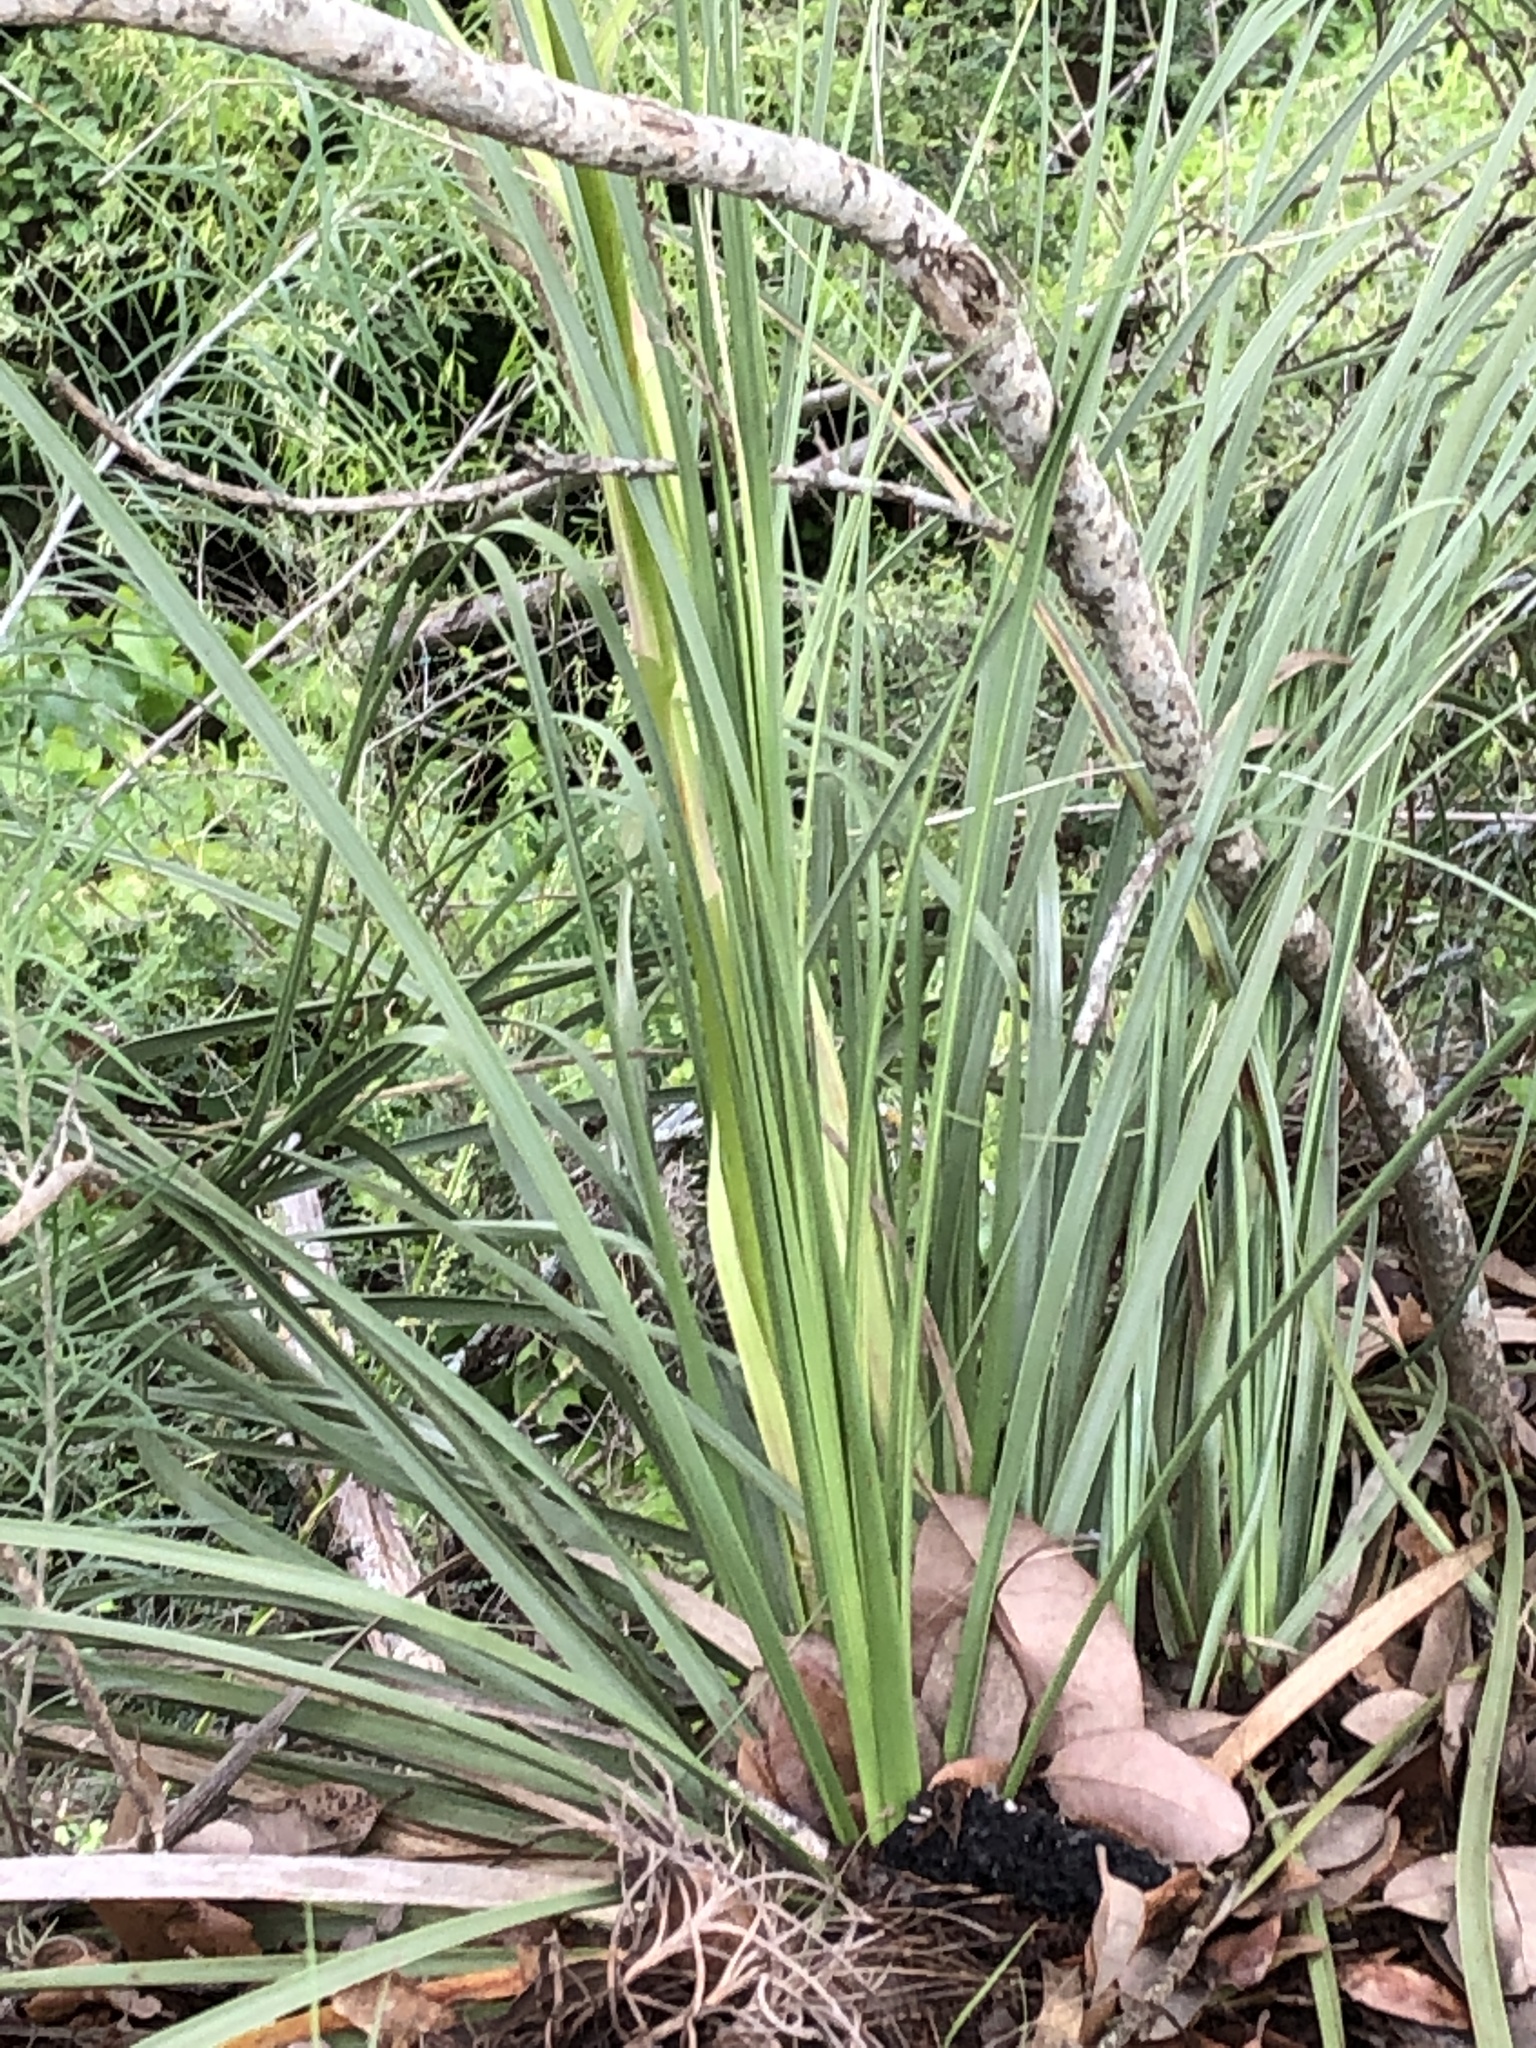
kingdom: Plantae
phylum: Tracheophyta
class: Liliopsida
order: Asparagales
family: Asparagaceae
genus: Nolina
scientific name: Nolina lindheimeriana
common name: Lindheimer's bear-grass
